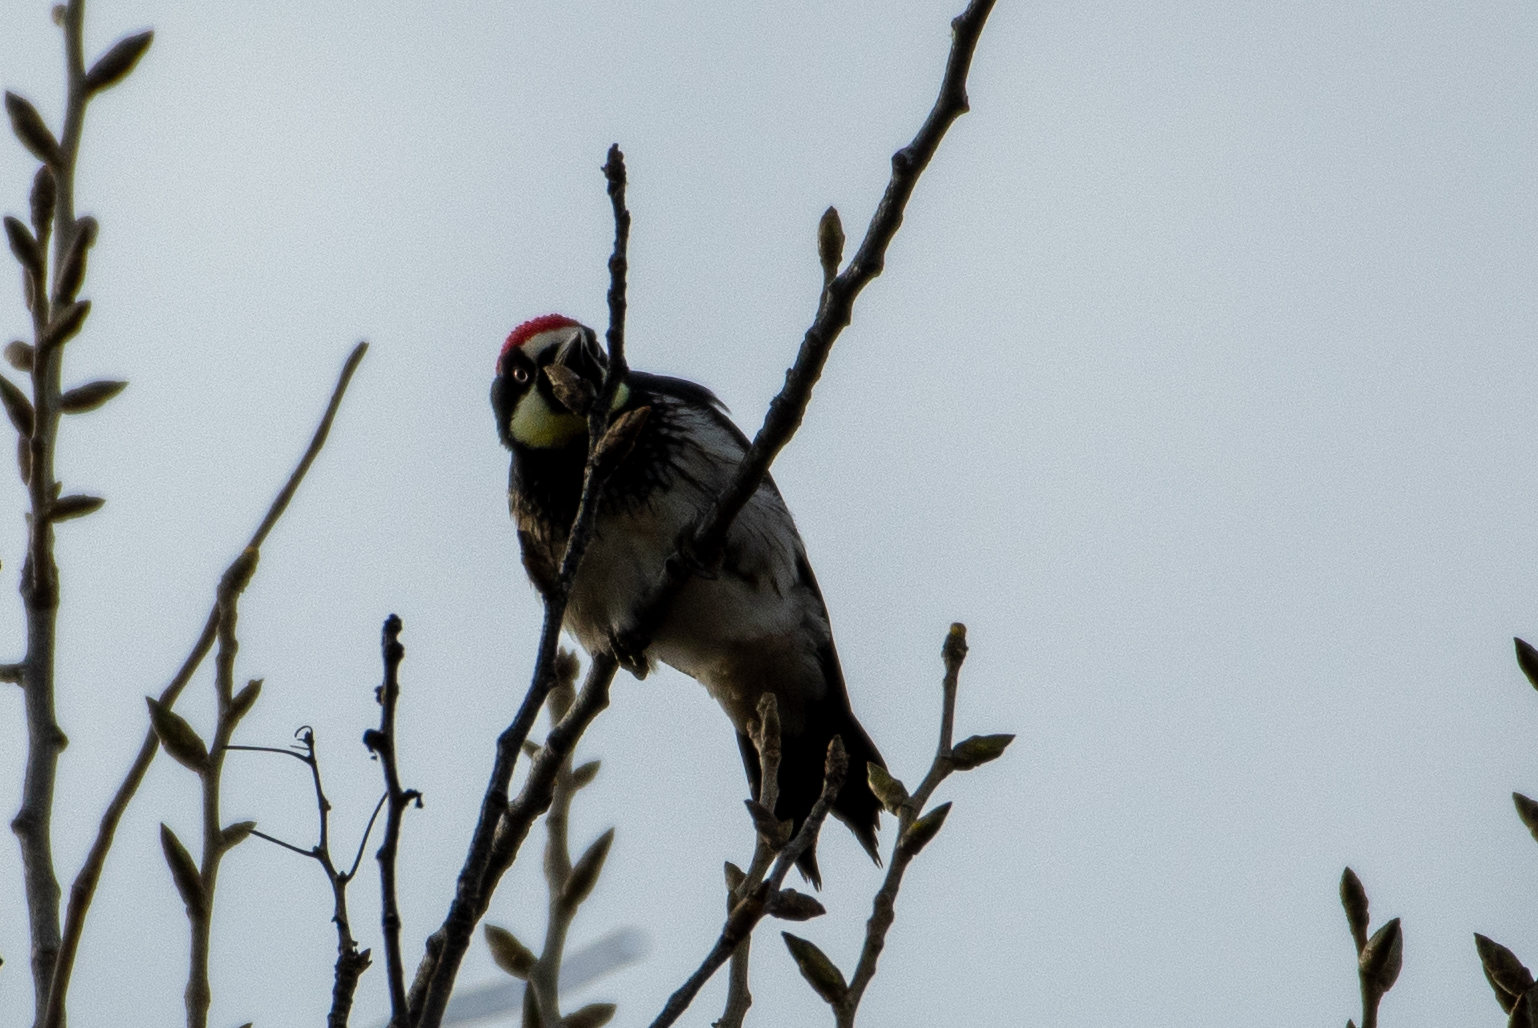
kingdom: Animalia
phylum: Chordata
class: Aves
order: Piciformes
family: Picidae
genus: Melanerpes
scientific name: Melanerpes formicivorus
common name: Acorn woodpecker
